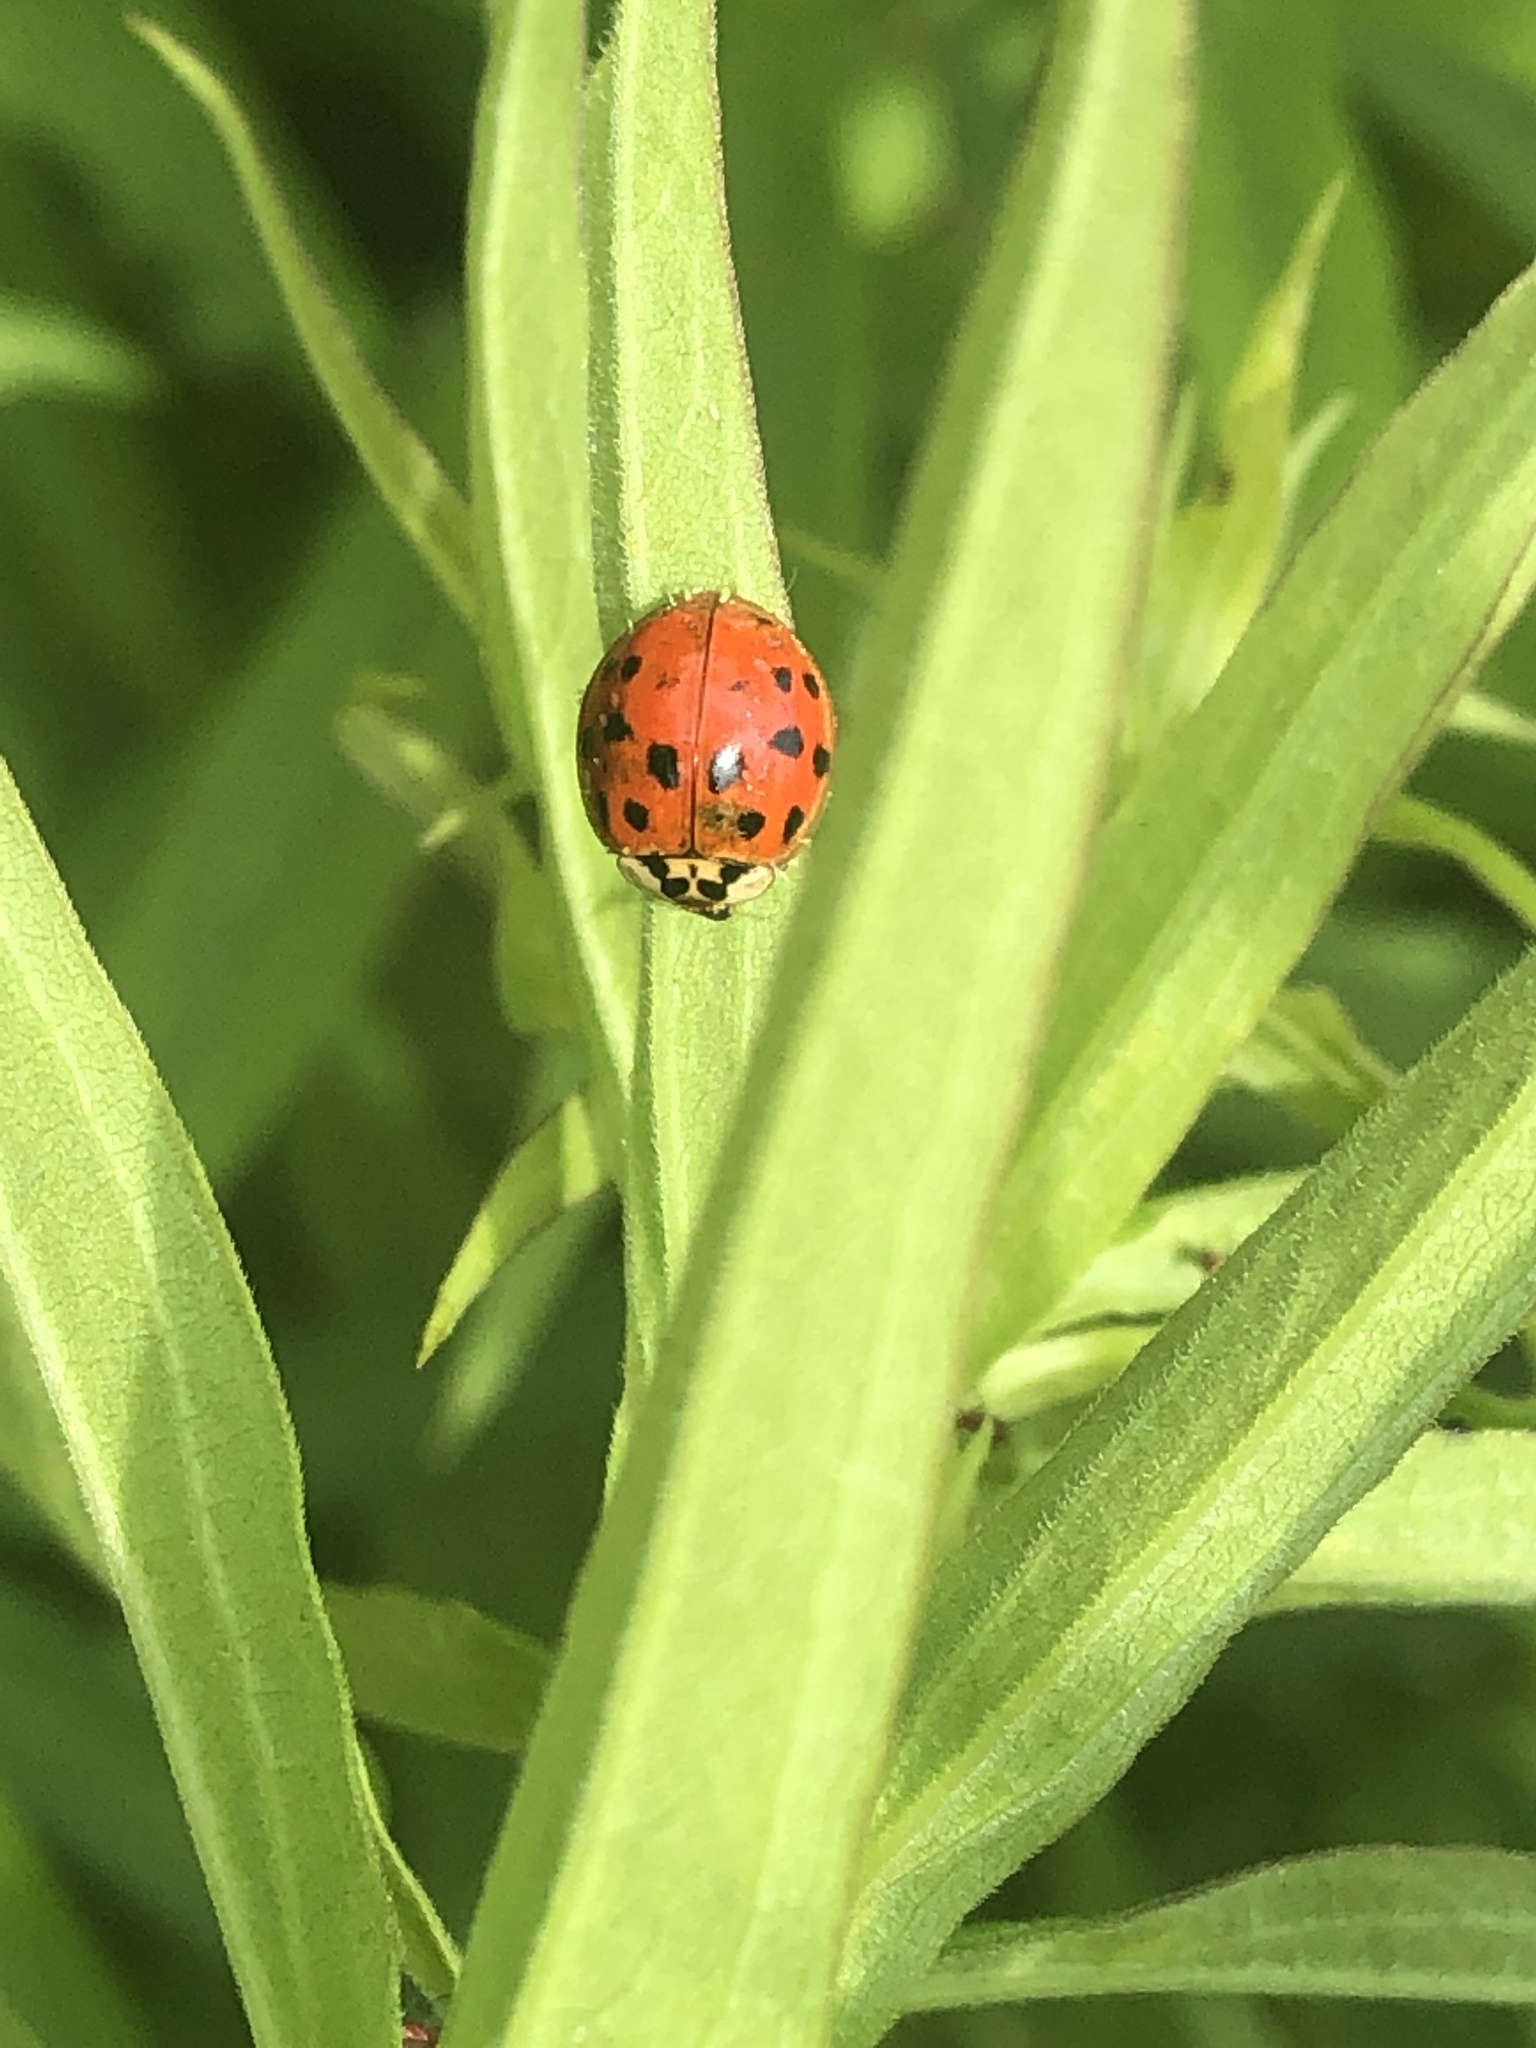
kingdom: Animalia
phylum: Arthropoda
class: Insecta
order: Coleoptera
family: Coccinellidae
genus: Harmonia
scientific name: Harmonia axyridis
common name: Harlequin ladybird
